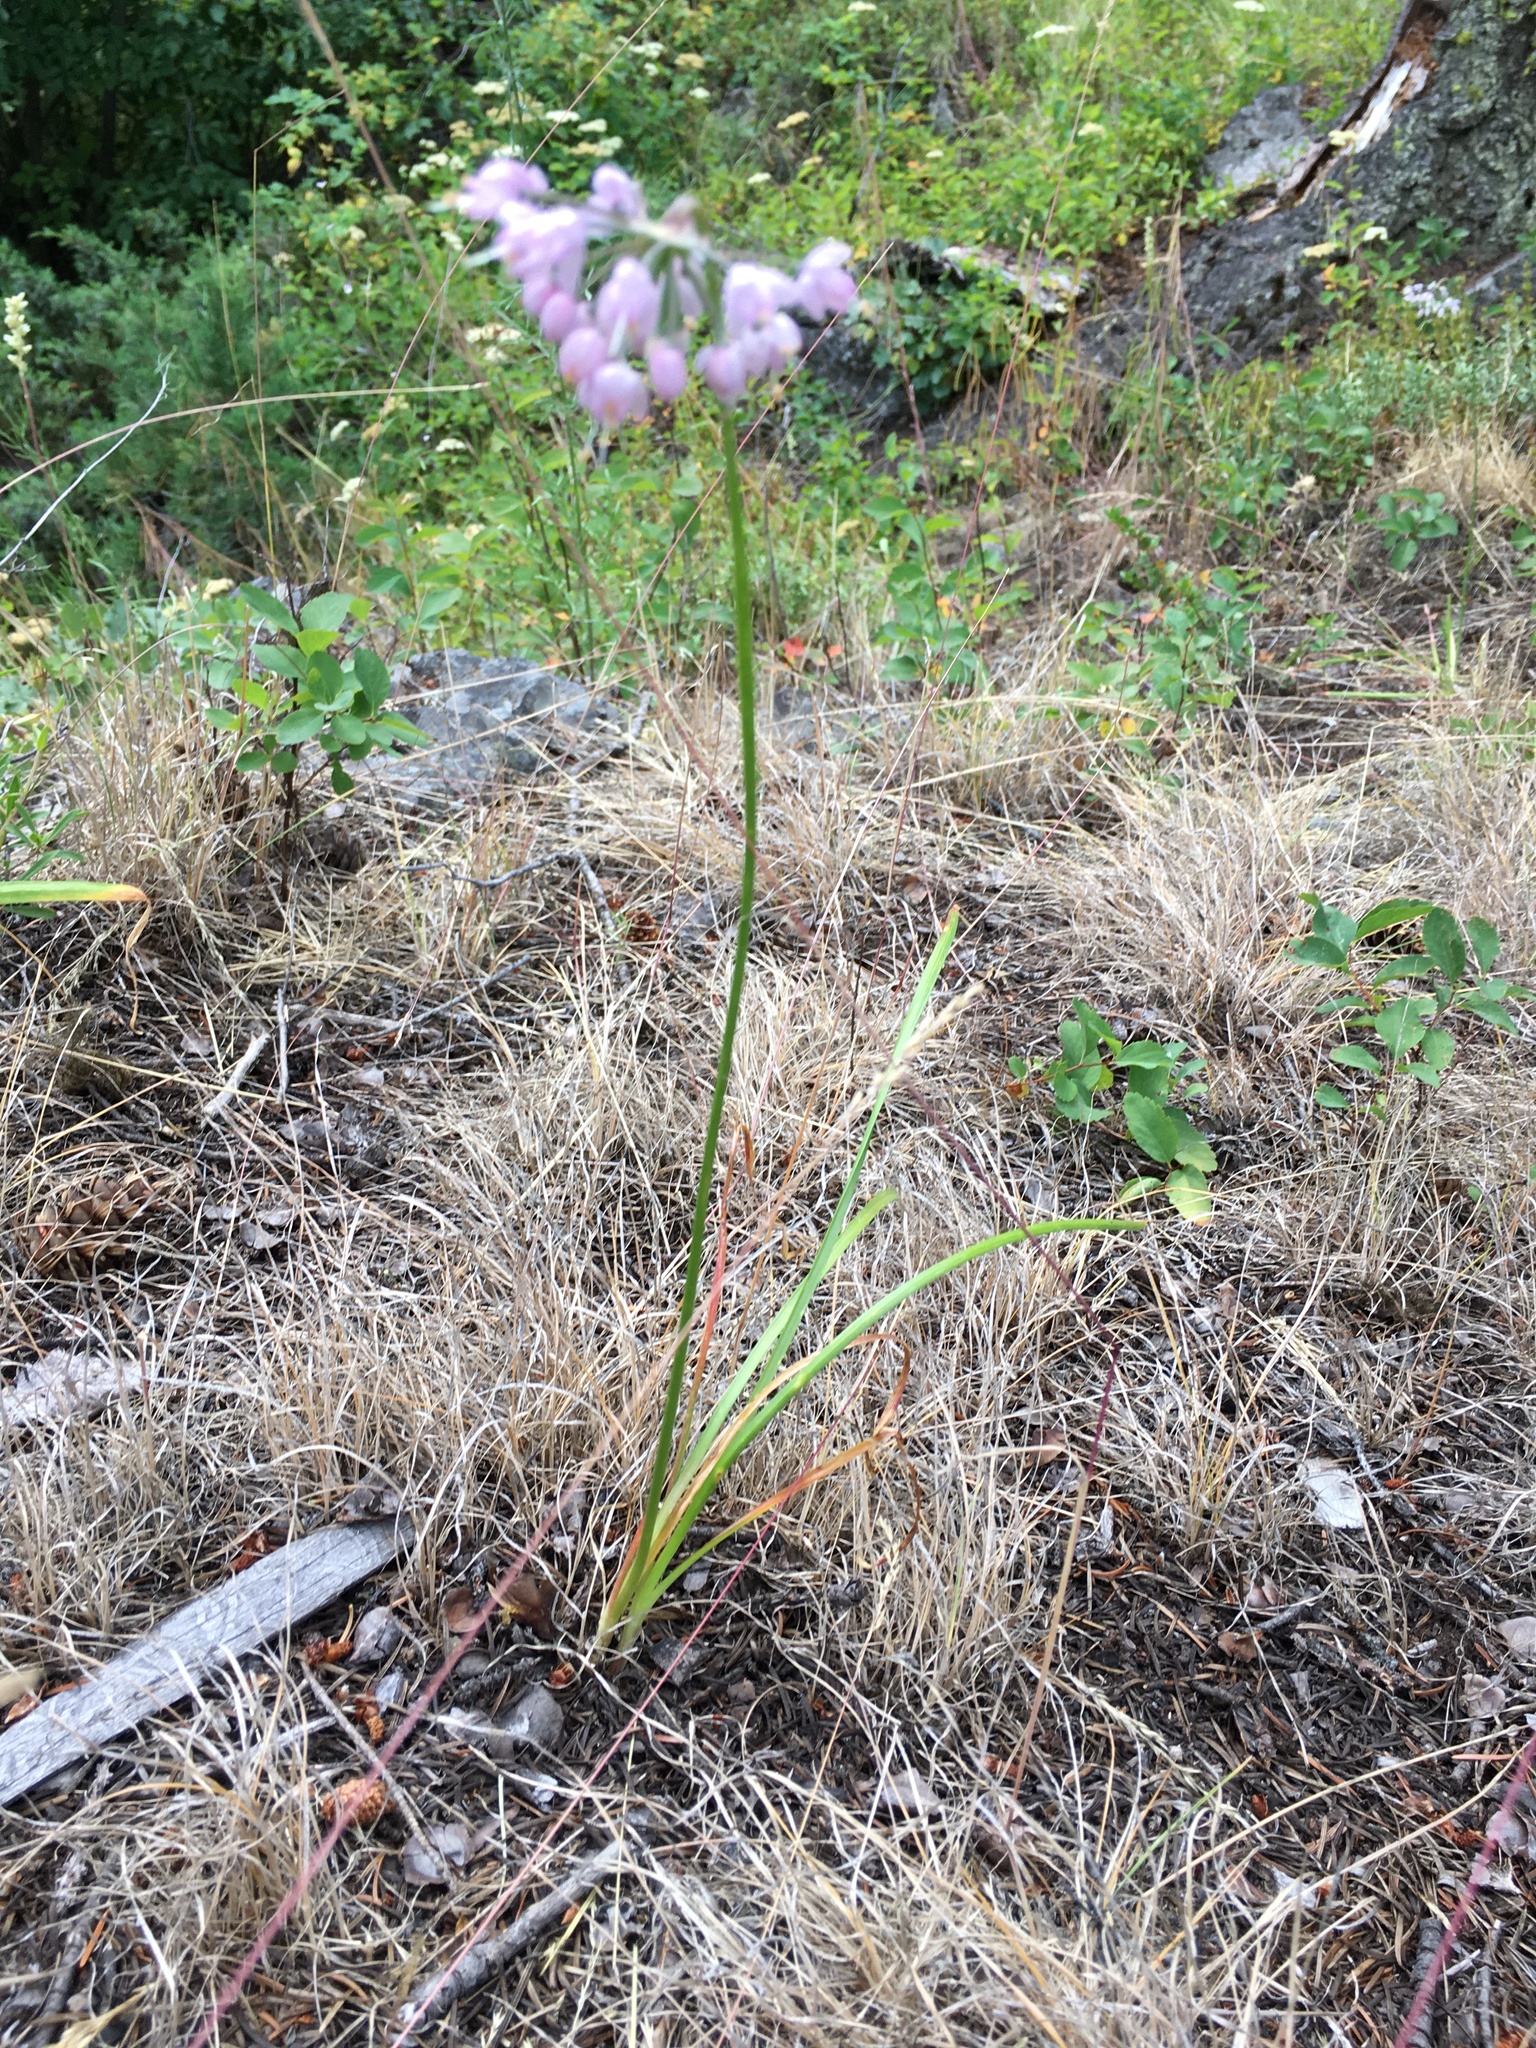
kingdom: Plantae
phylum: Tracheophyta
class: Liliopsida
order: Asparagales
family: Amaryllidaceae
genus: Allium
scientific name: Allium cernuum
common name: Nodding onion
